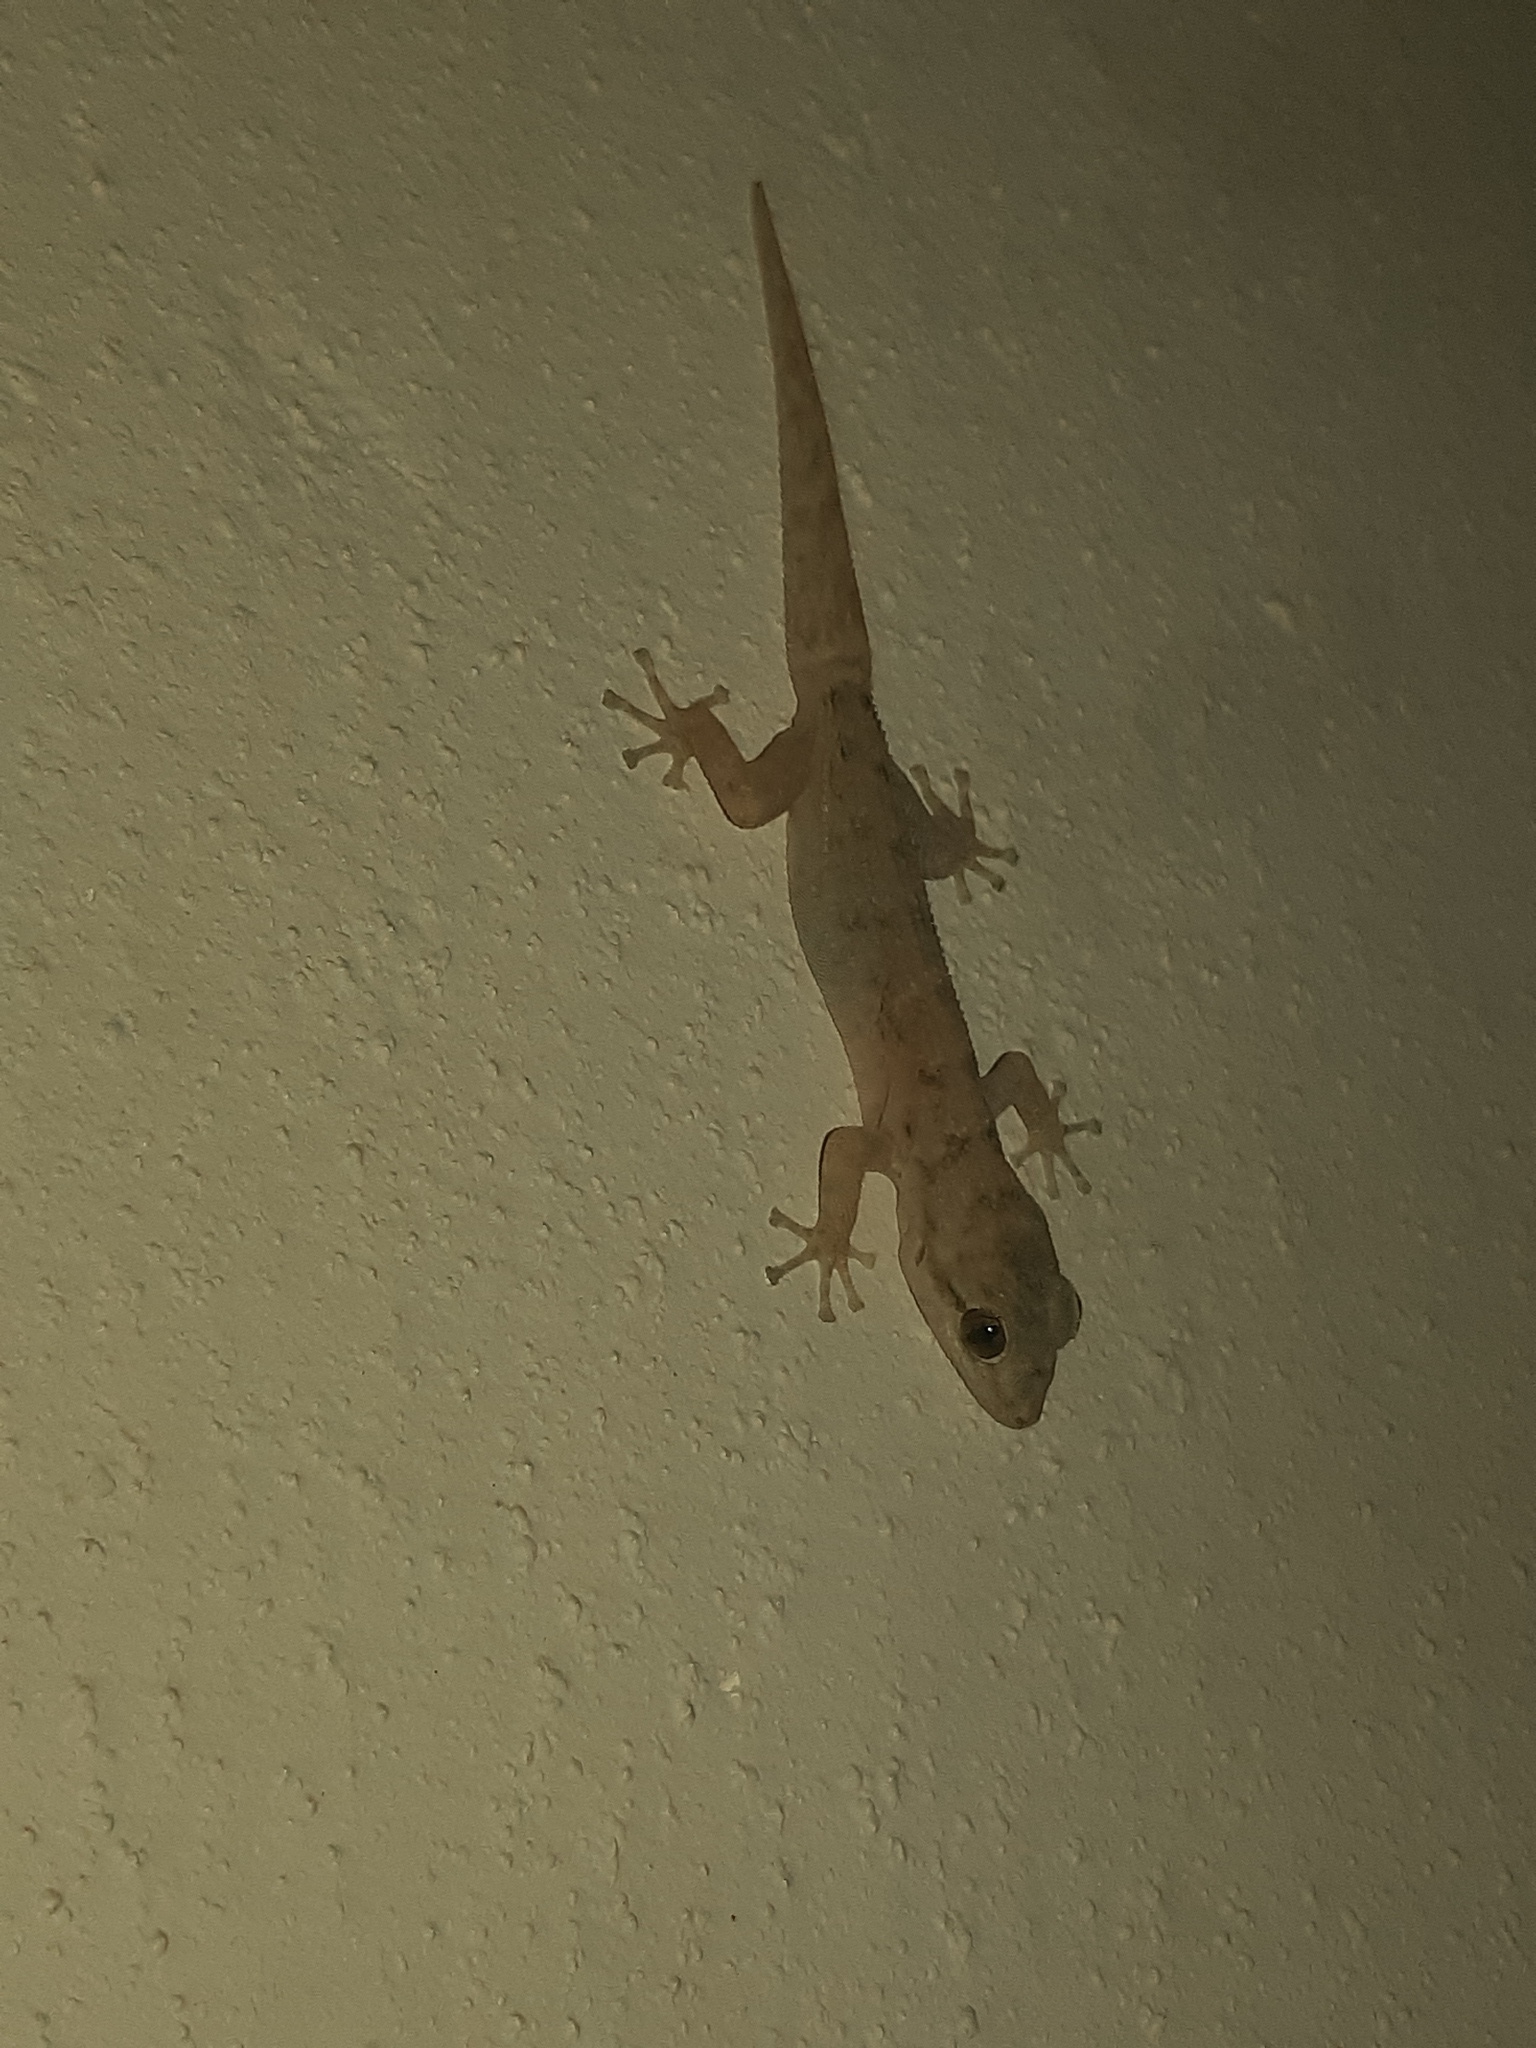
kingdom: Animalia
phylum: Chordata
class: Squamata
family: Phyllodactylidae
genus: Phyllodactylus
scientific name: Phyllodactylus reissii
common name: Peters' leaf-toed gecko
